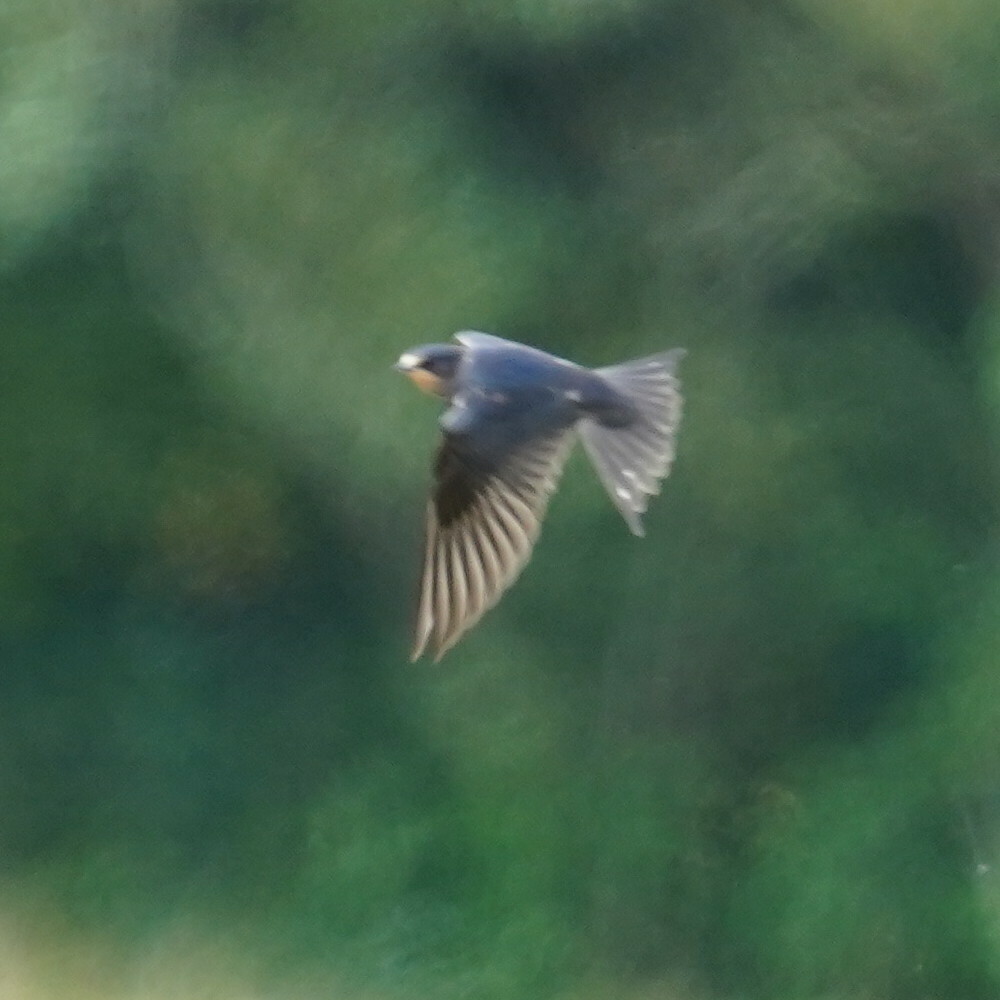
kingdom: Animalia
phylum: Chordata
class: Aves
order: Passeriformes
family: Hirundinidae
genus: Hirundo
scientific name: Hirundo rustica
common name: Barn swallow
